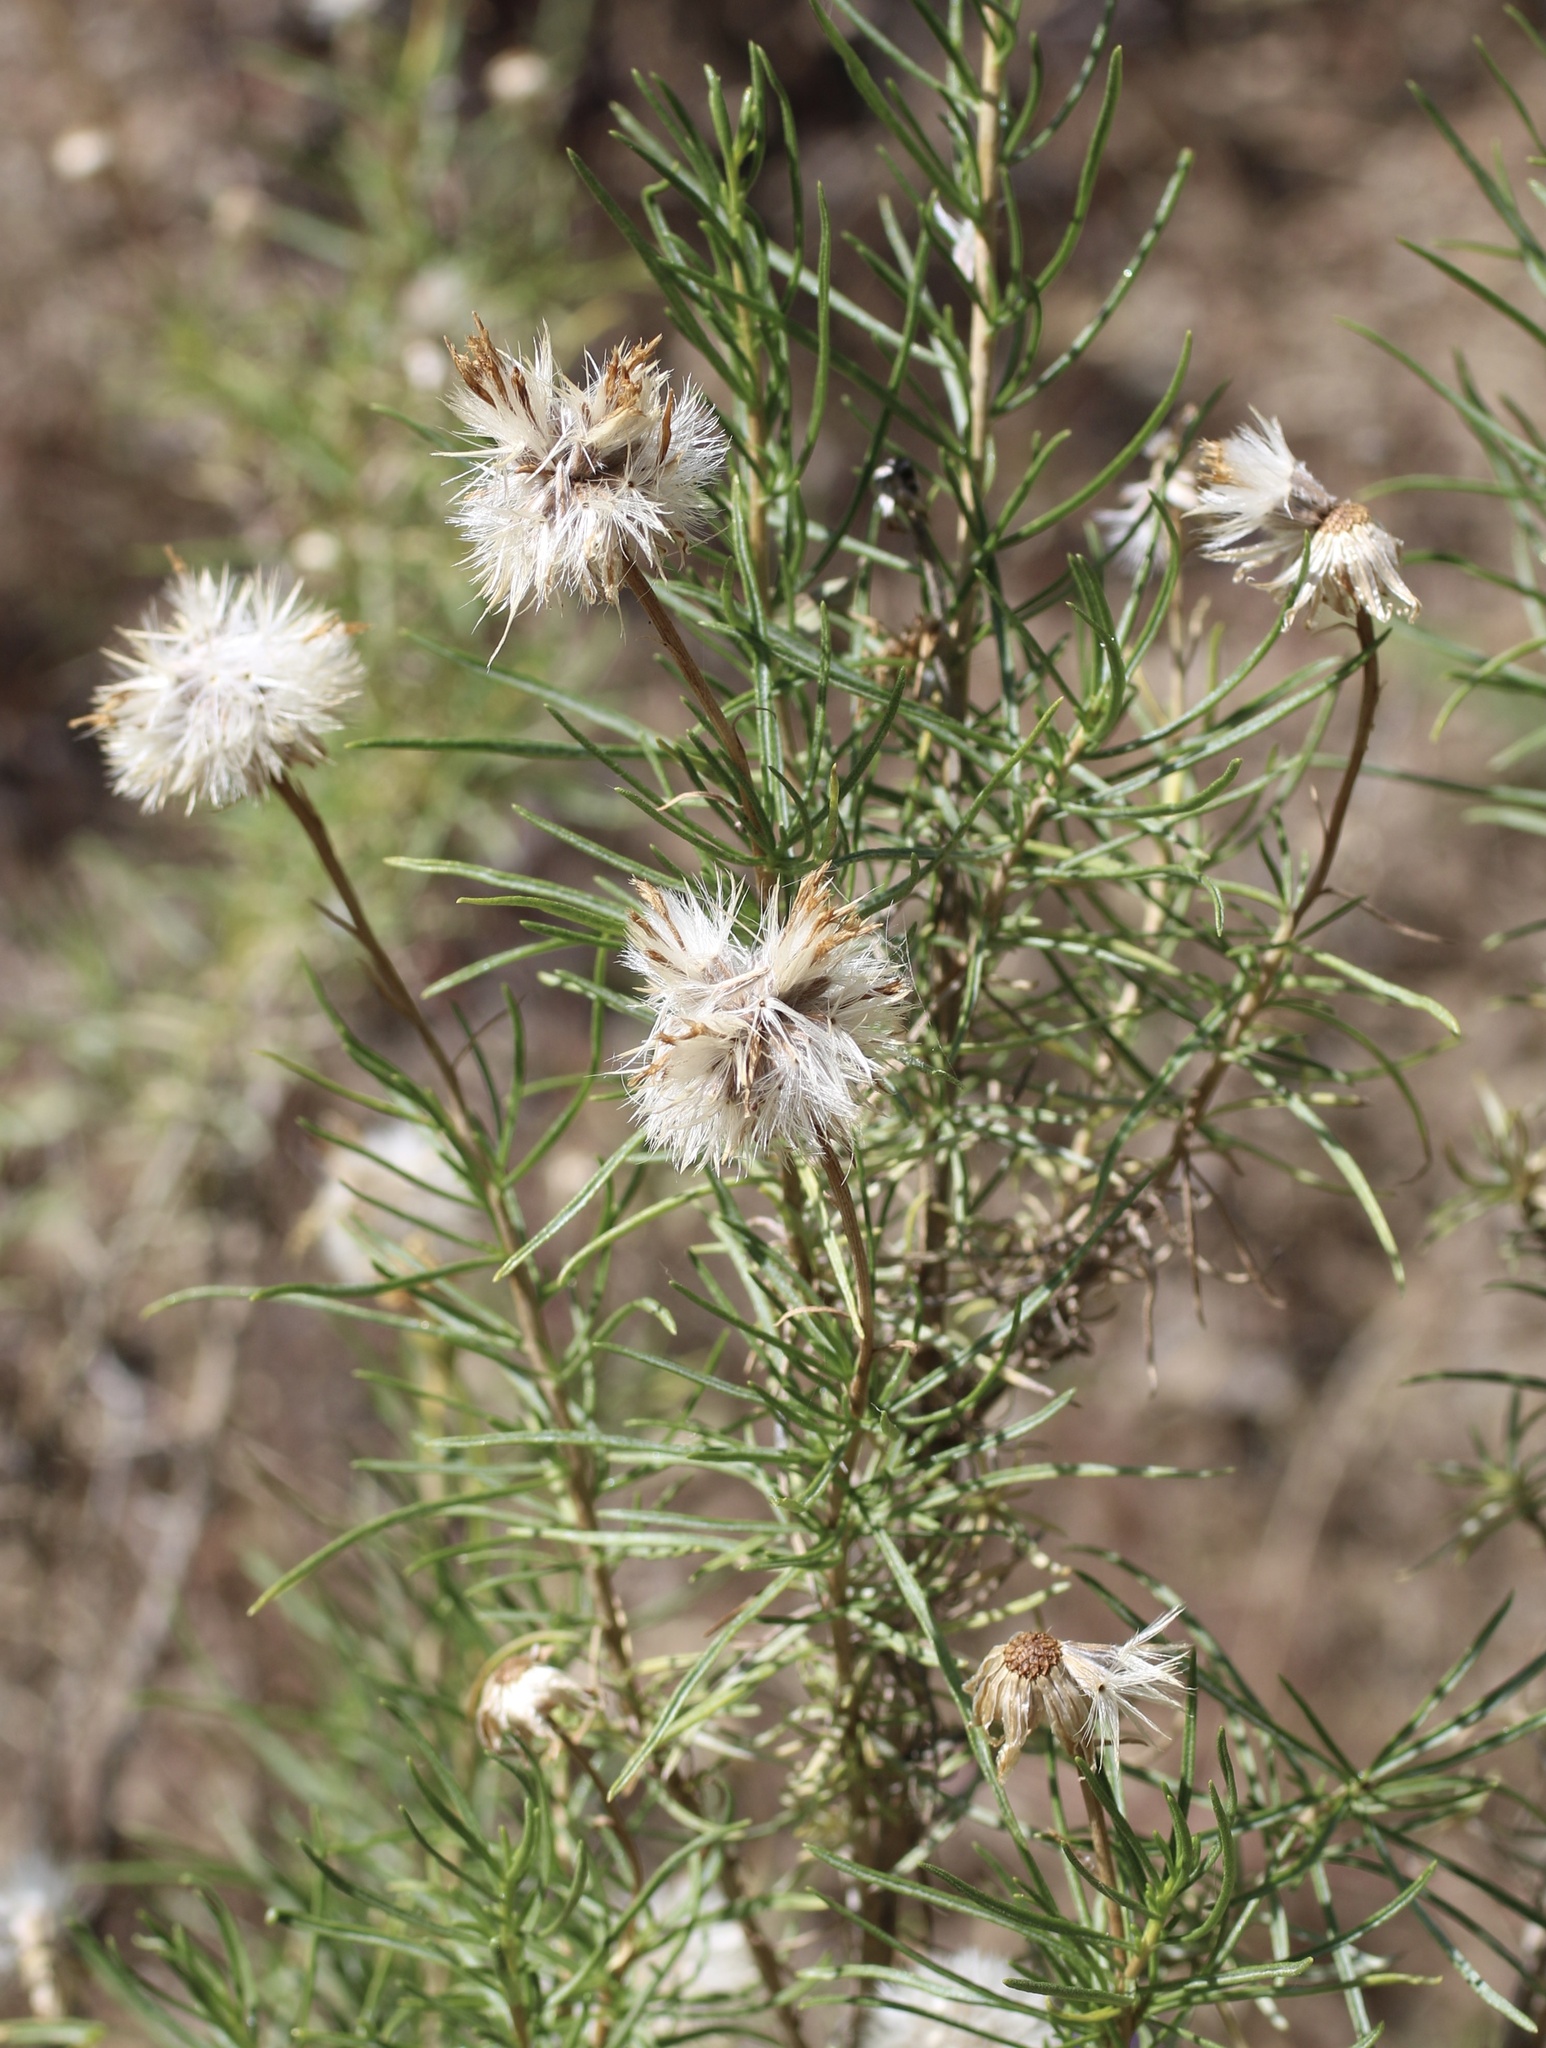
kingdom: Plantae
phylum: Tracheophyta
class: Magnoliopsida
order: Asterales
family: Asteraceae
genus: Ericameria
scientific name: Ericameria linearifolia
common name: Interior goldenbush
